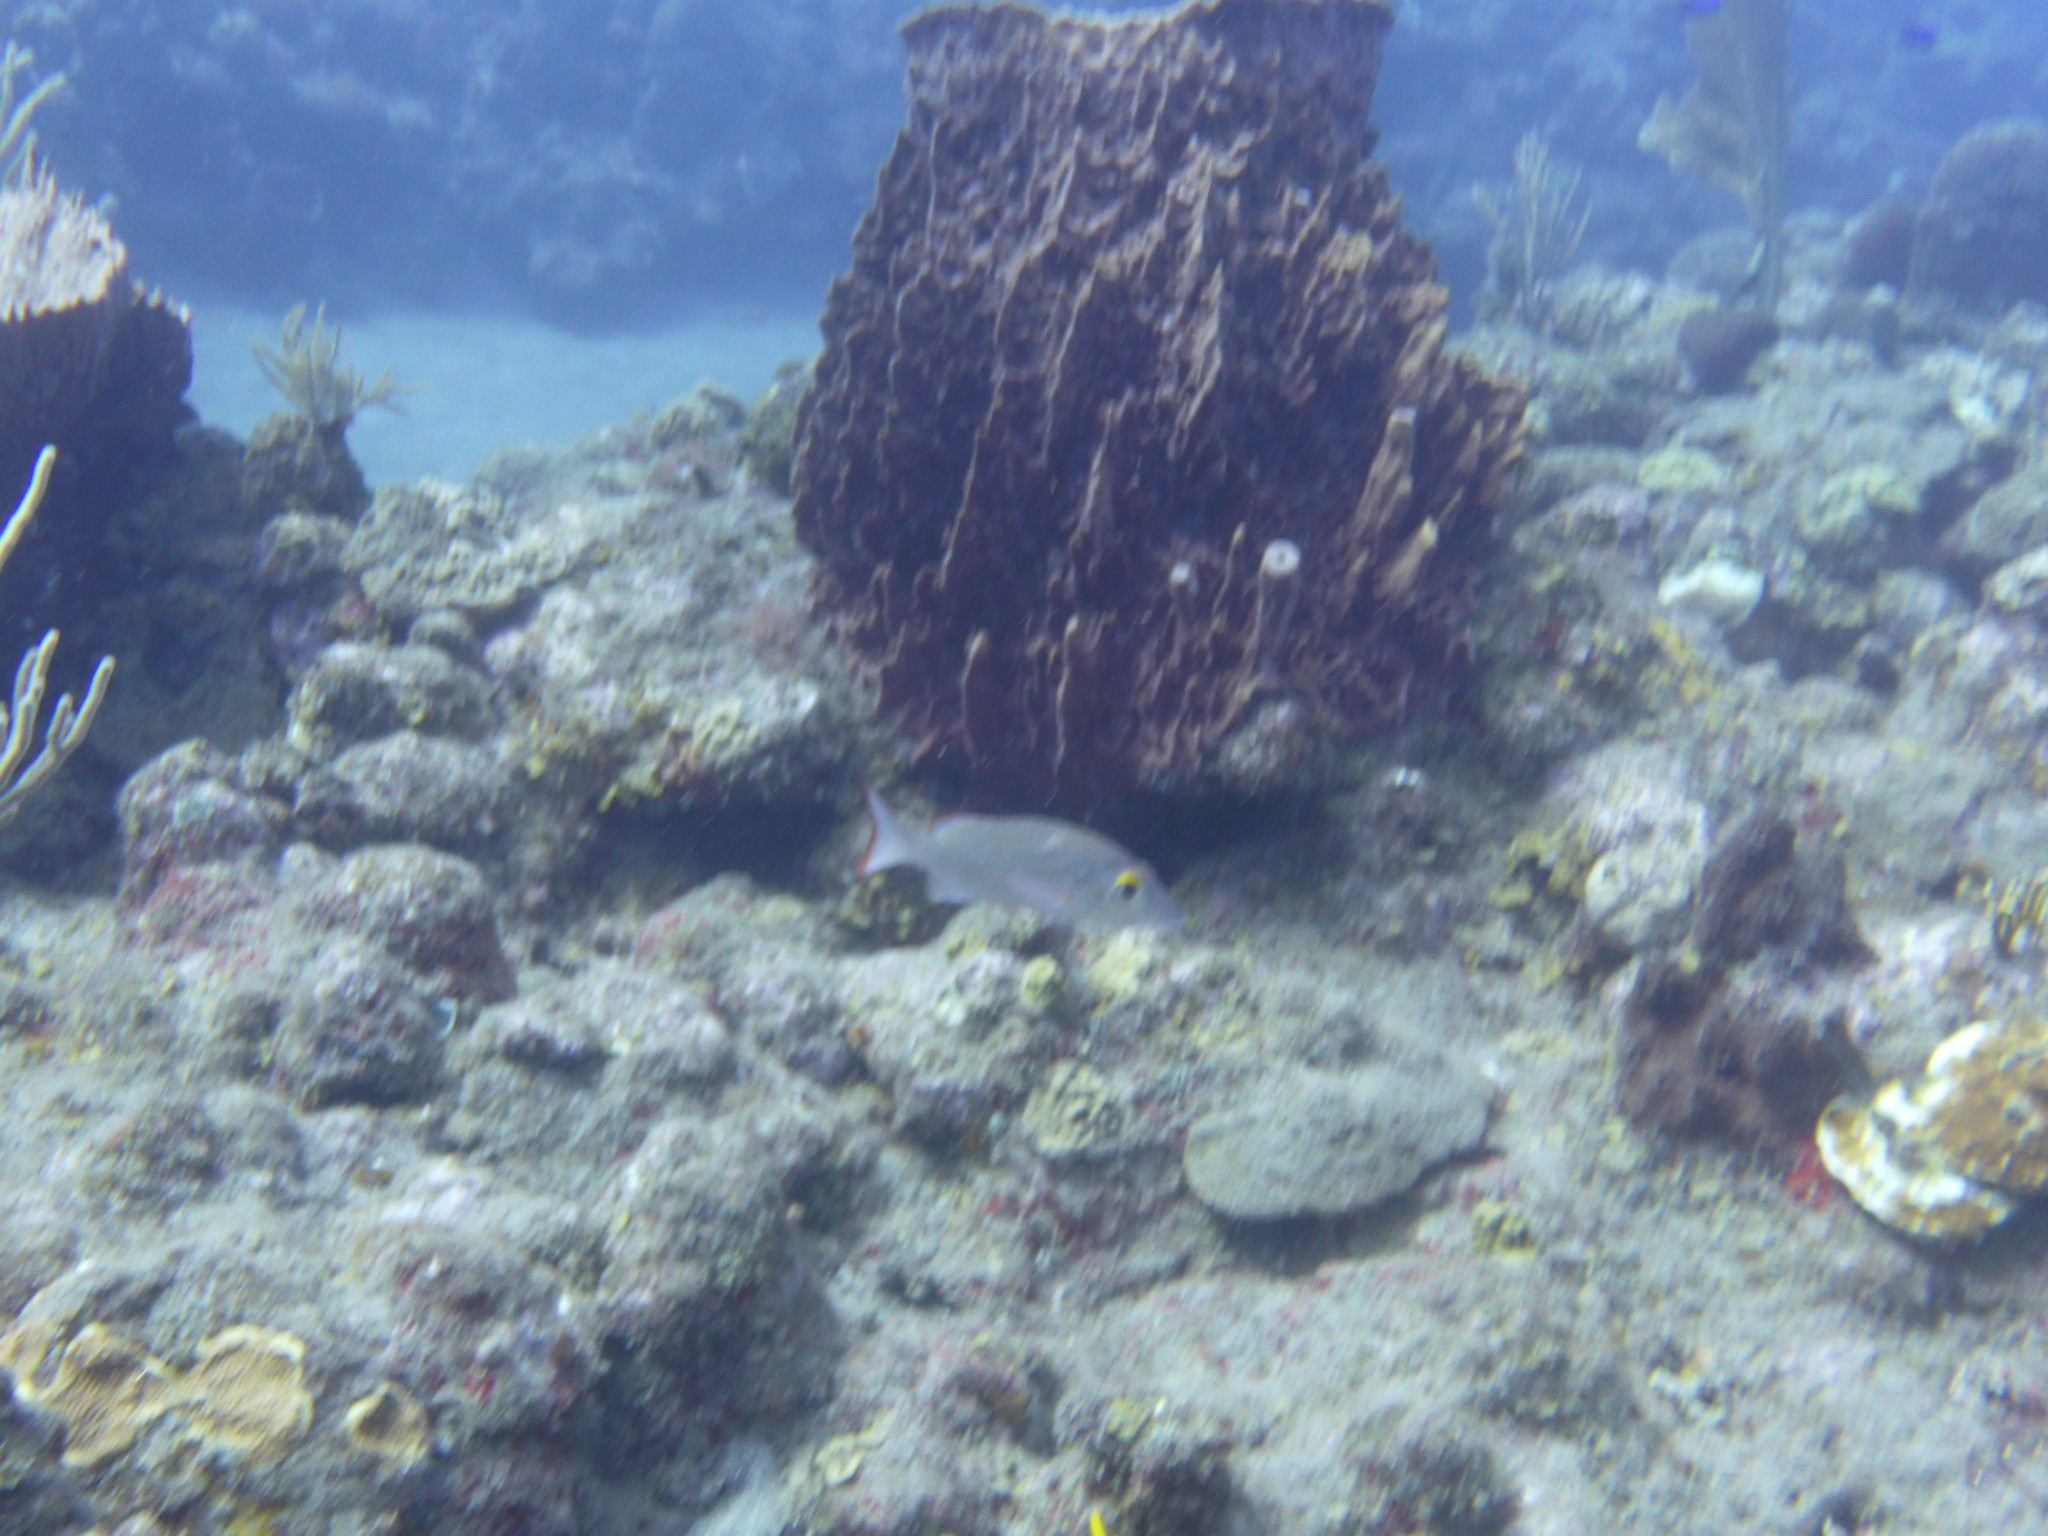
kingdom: Animalia
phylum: Chordata
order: Perciformes
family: Lutjanidae
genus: Lutjanus
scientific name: Lutjanus mahogoni
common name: Spot snapper
